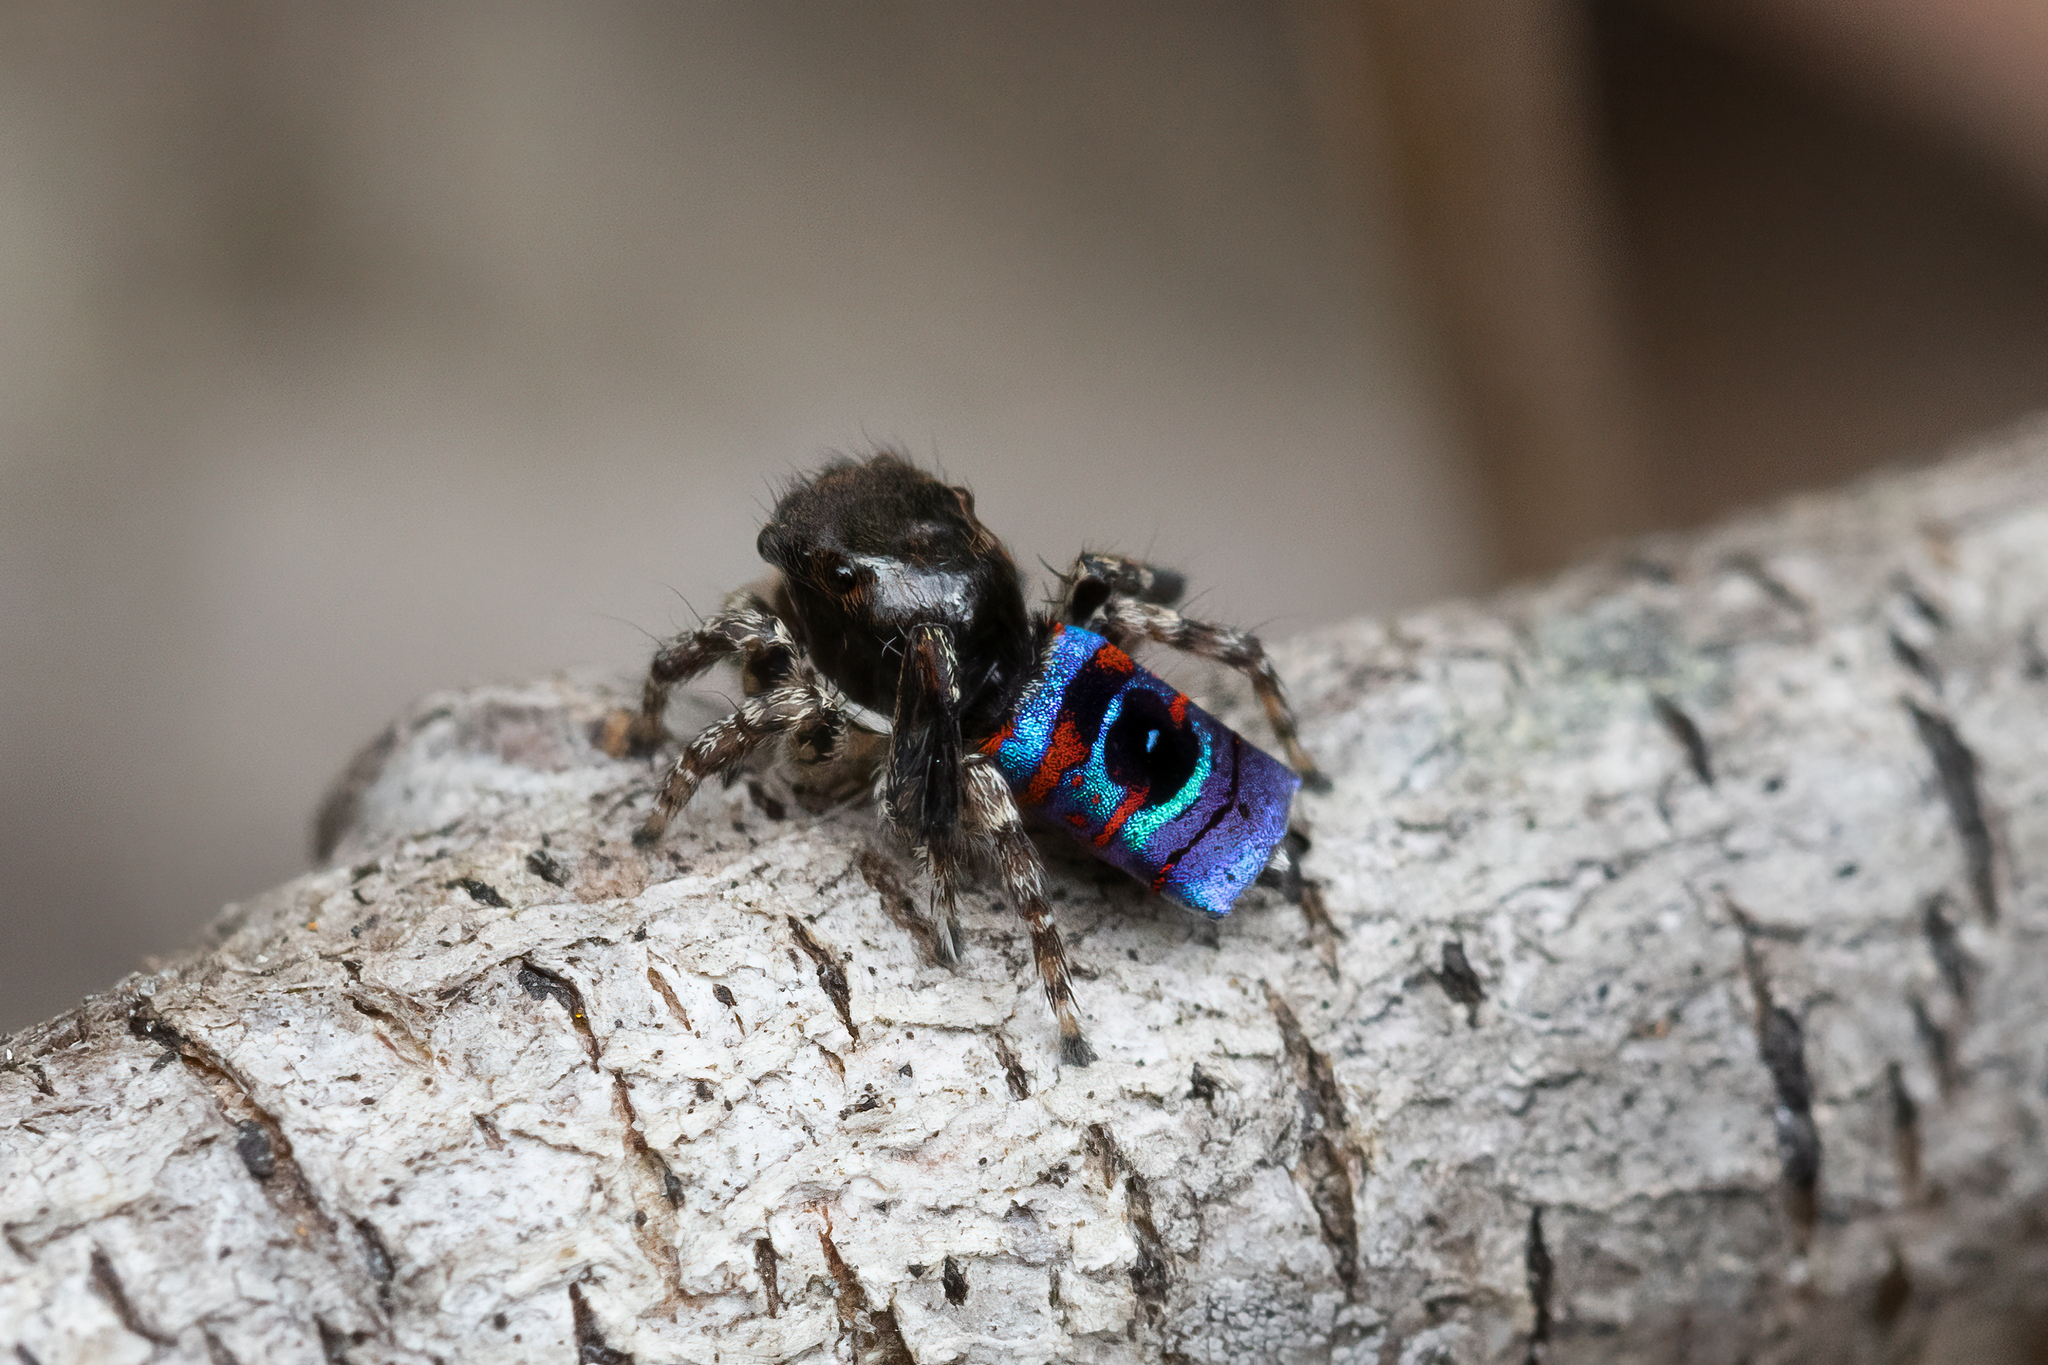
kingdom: Animalia
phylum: Arthropoda
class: Arachnida
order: Araneae
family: Salticidae
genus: Maratus
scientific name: Maratus karrie
